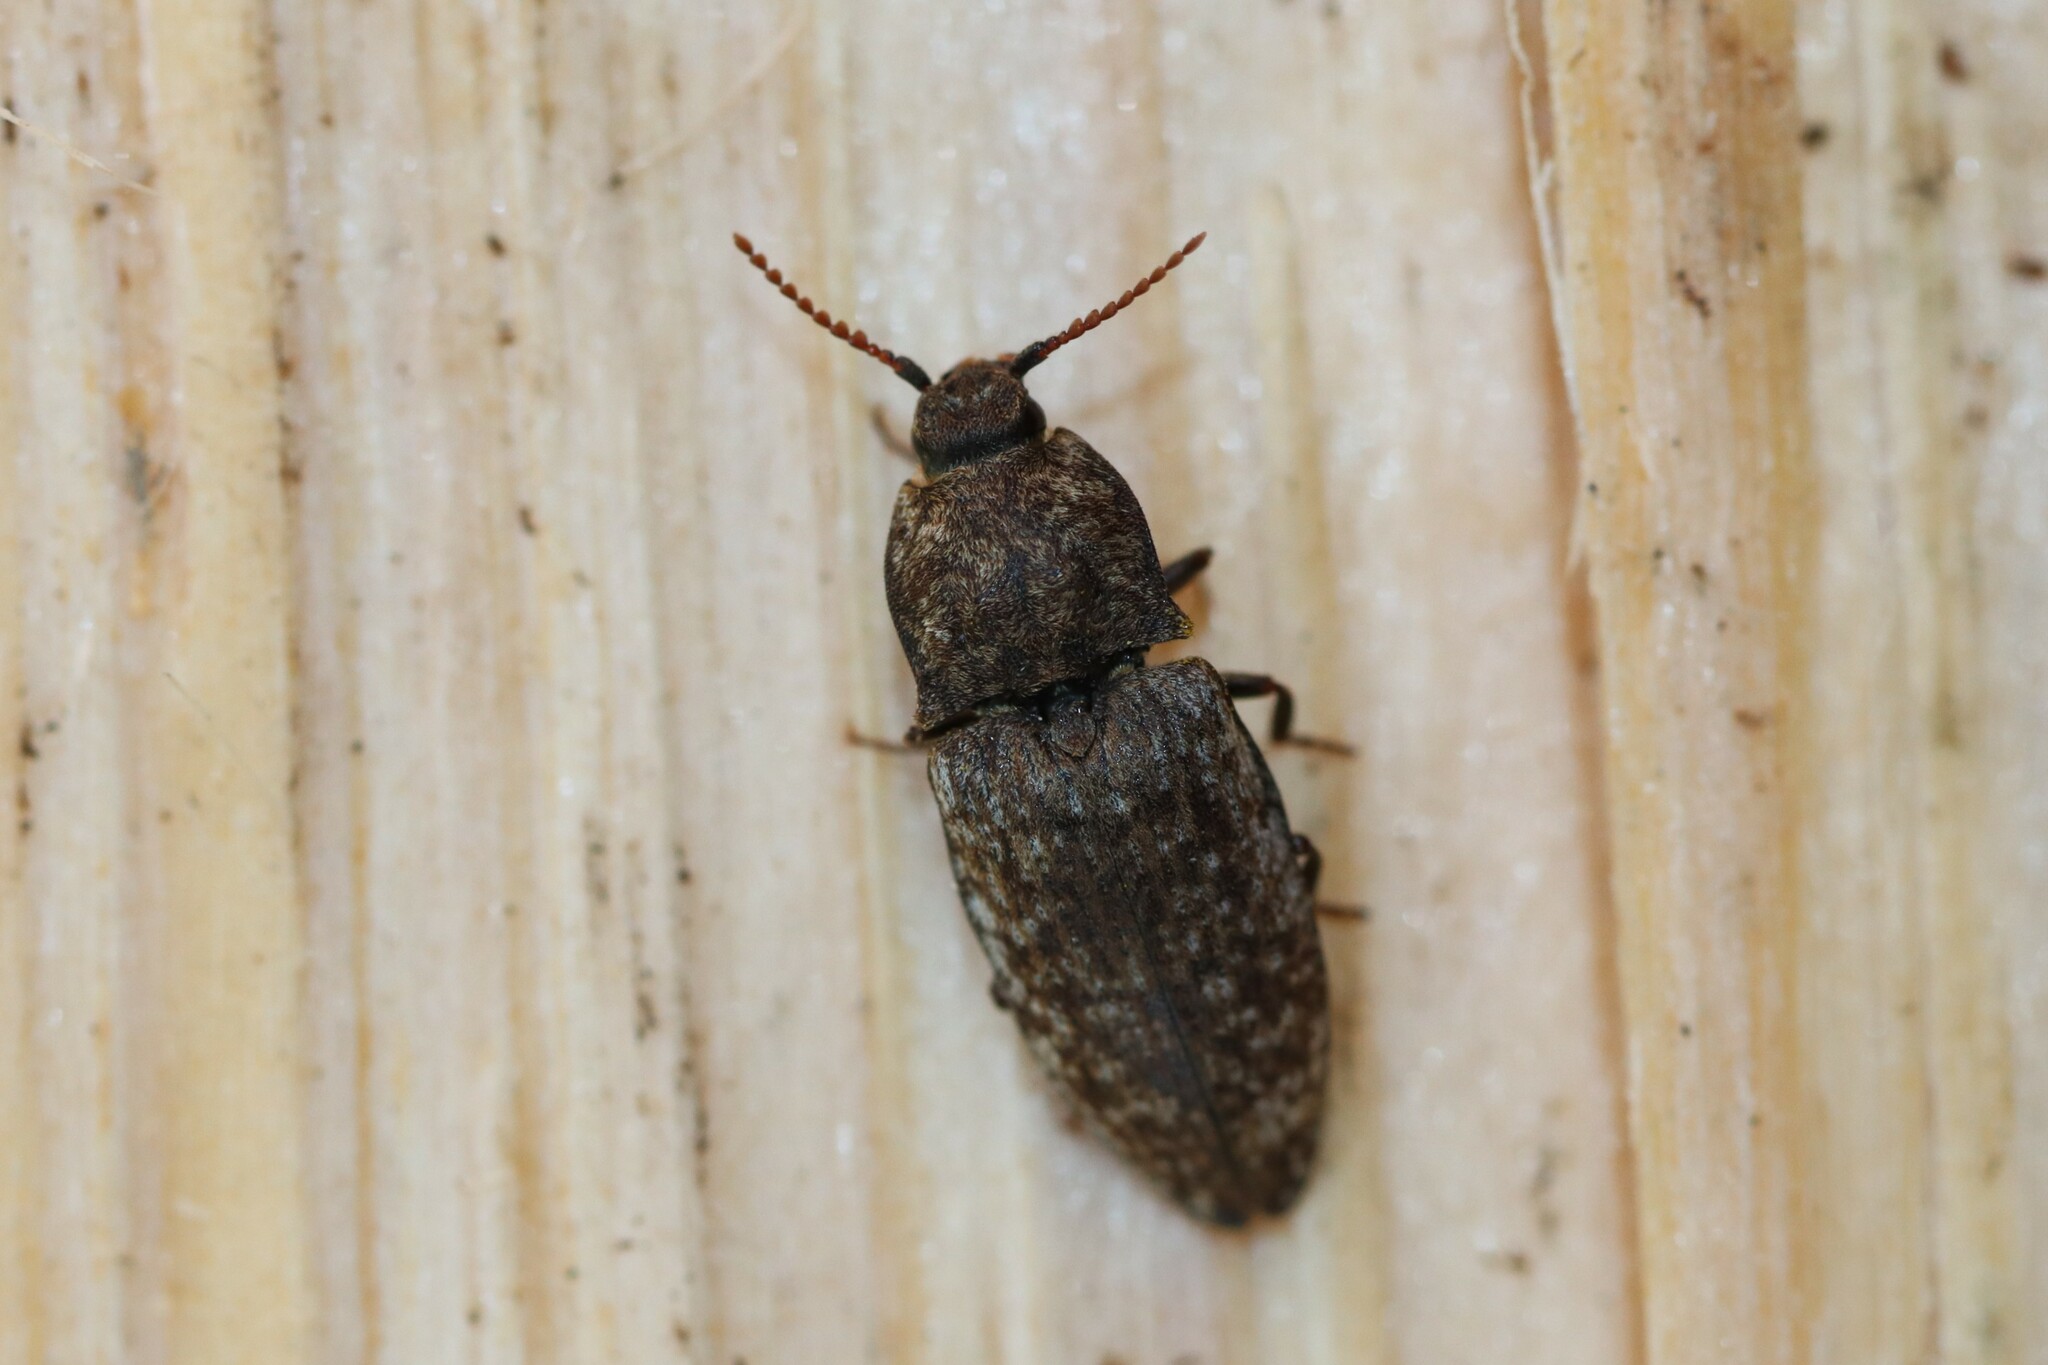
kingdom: Animalia
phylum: Arthropoda
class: Insecta
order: Coleoptera
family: Elateridae
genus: Agrypnus
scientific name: Agrypnus murinus
